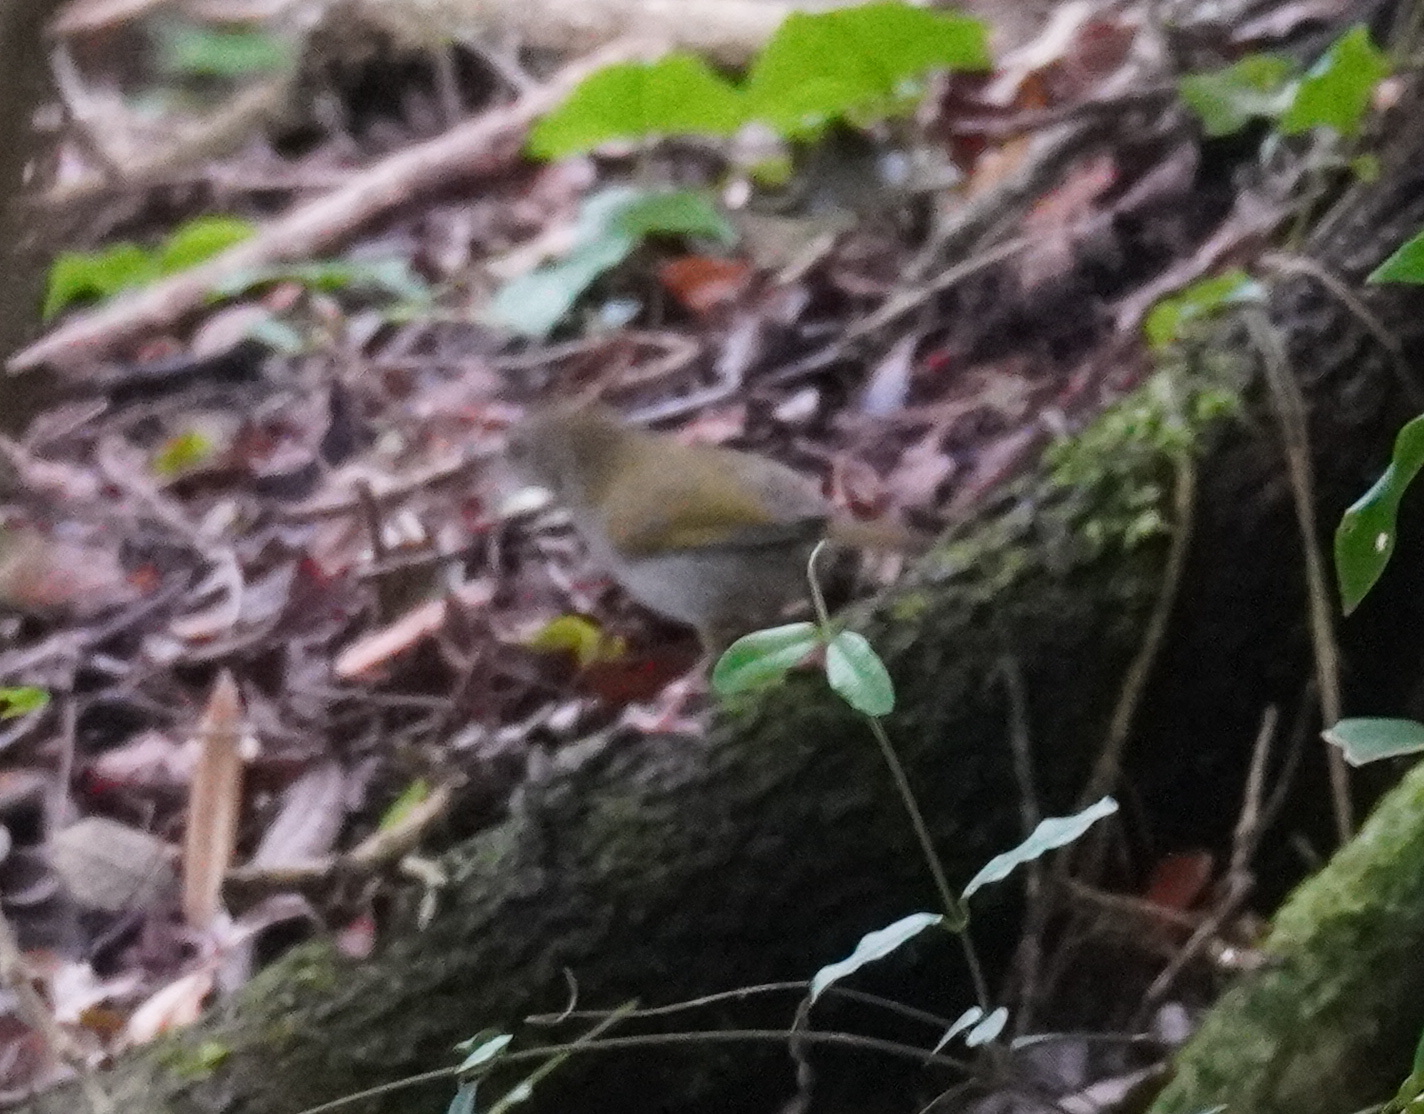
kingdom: Animalia
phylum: Chordata
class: Aves
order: Passeriformes
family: Cisticolidae
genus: Camaroptera
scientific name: Camaroptera brachyura
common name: Green-backed camaroptera
